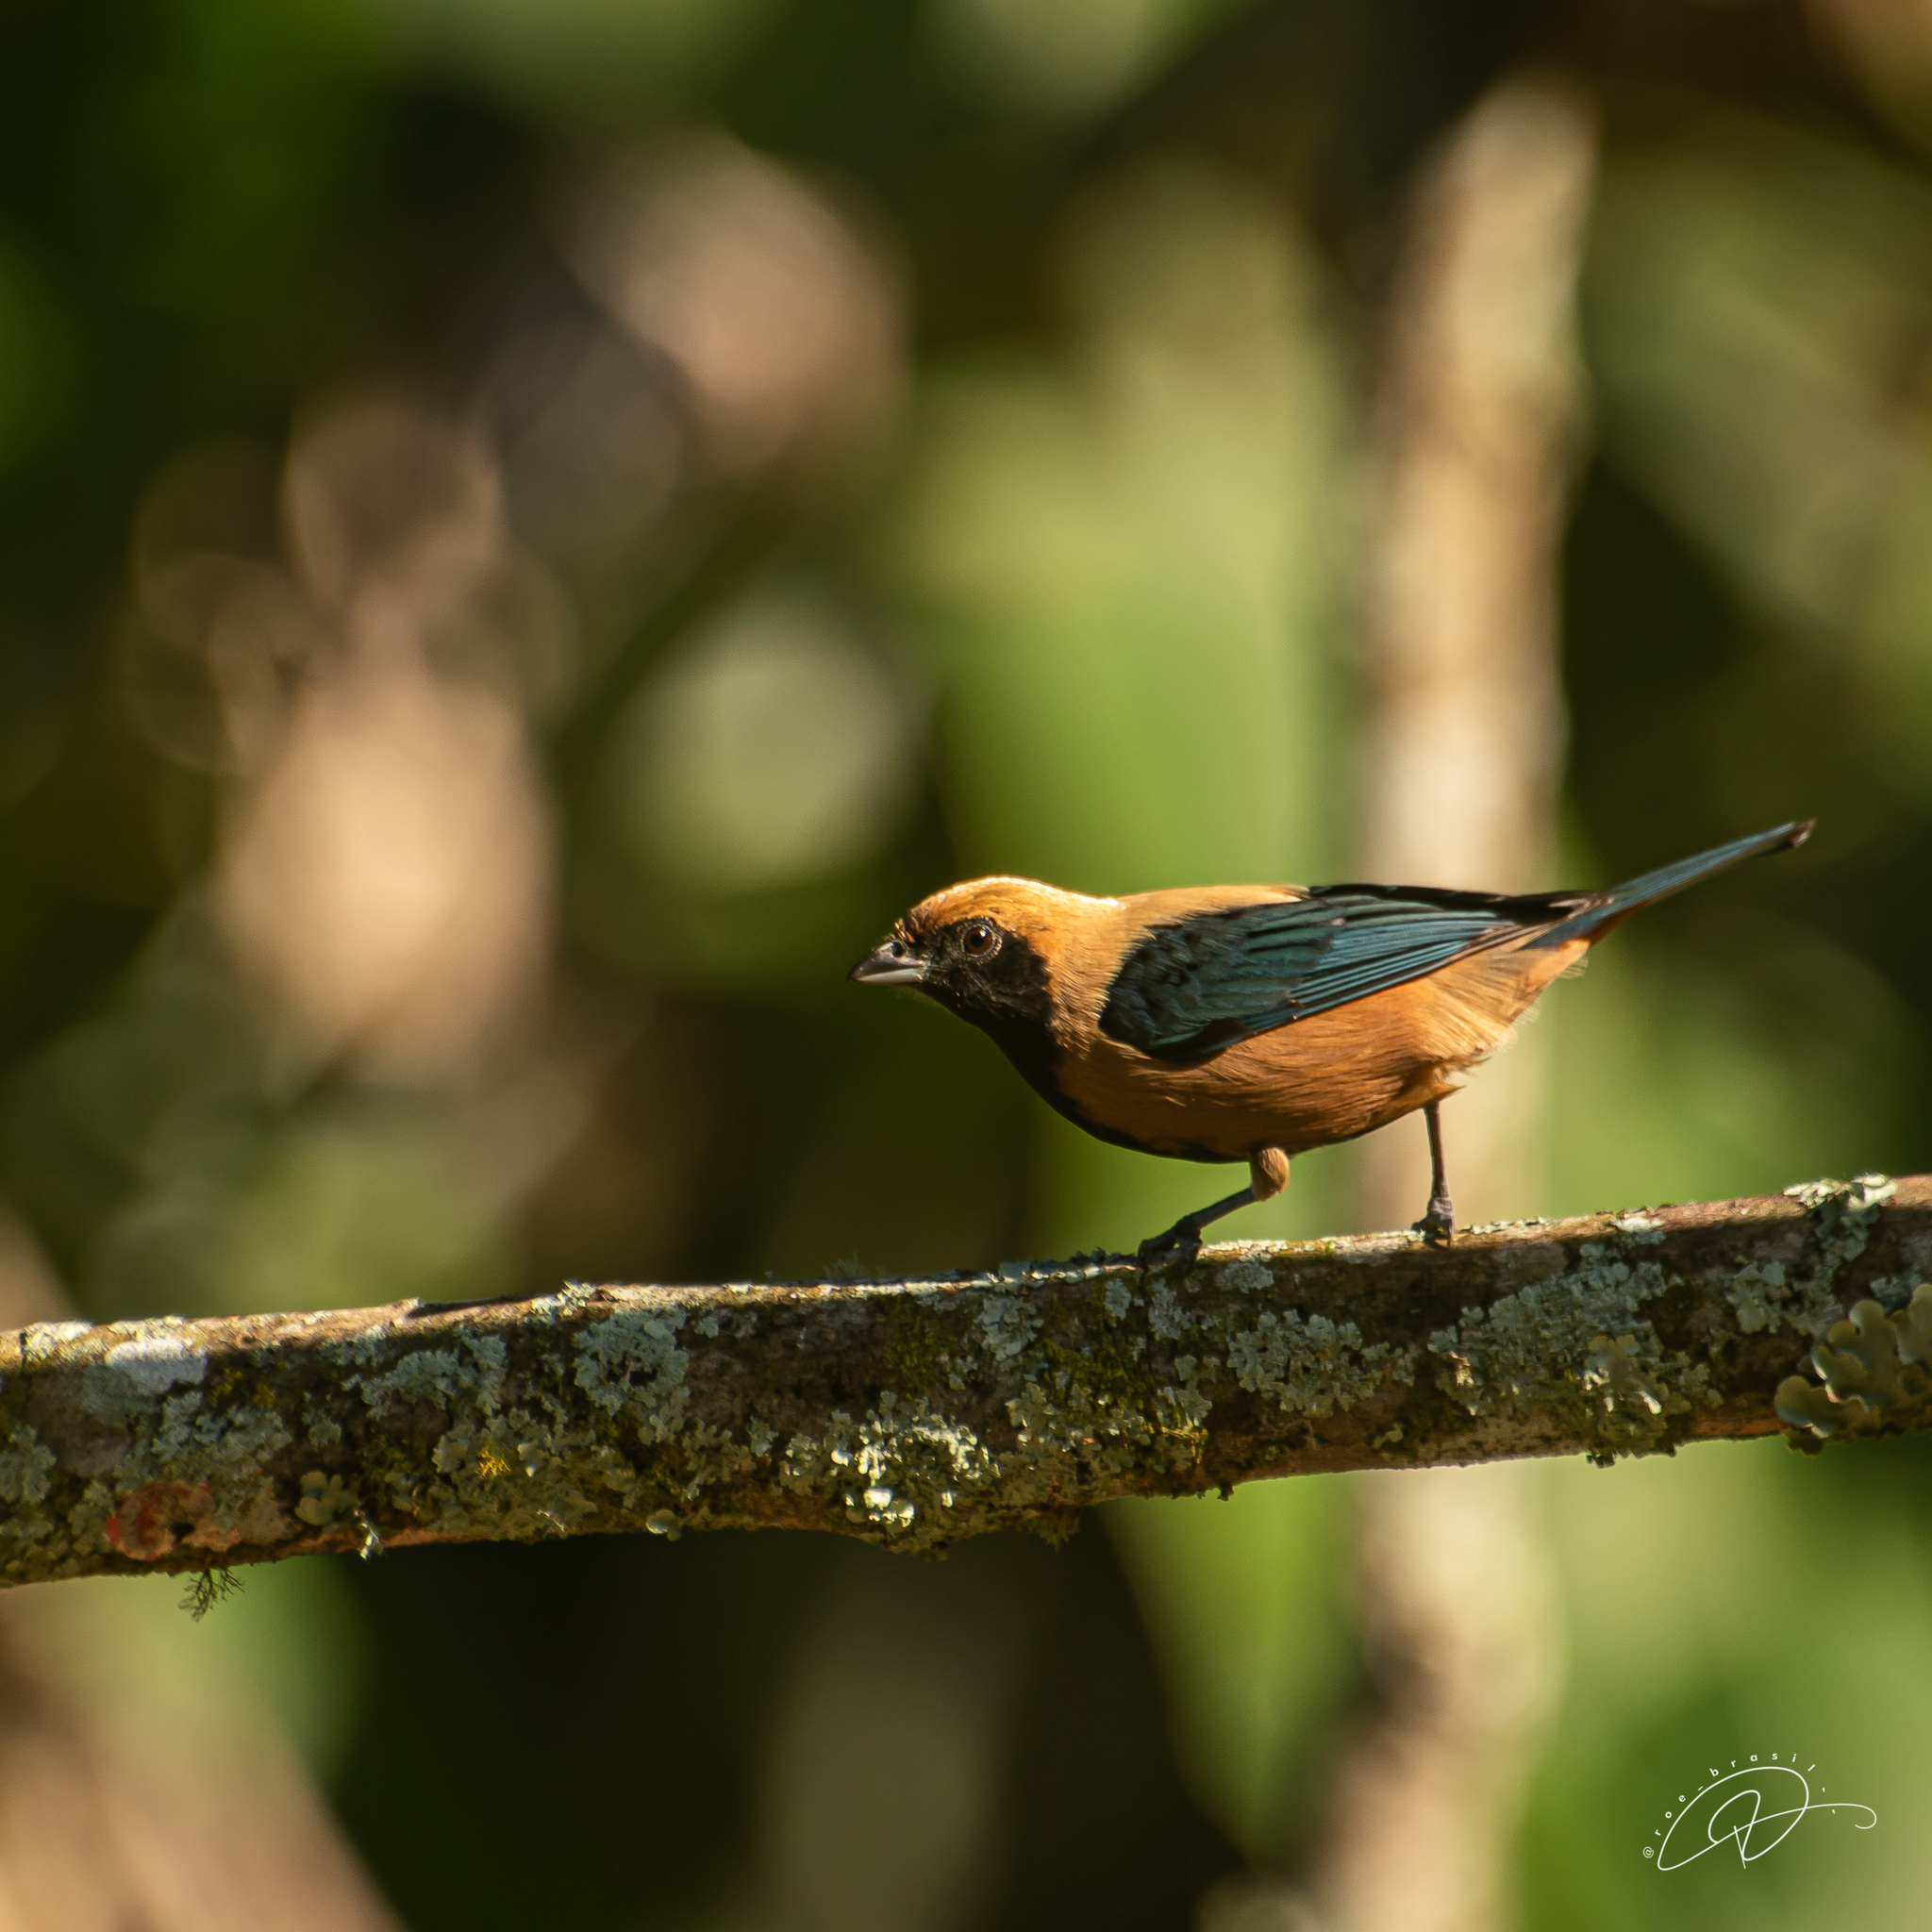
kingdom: Animalia
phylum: Chordata
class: Aves
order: Passeriformes
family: Thraupidae
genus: Stilpnia
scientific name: Stilpnia cayana
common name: Burnished-buff tanager
